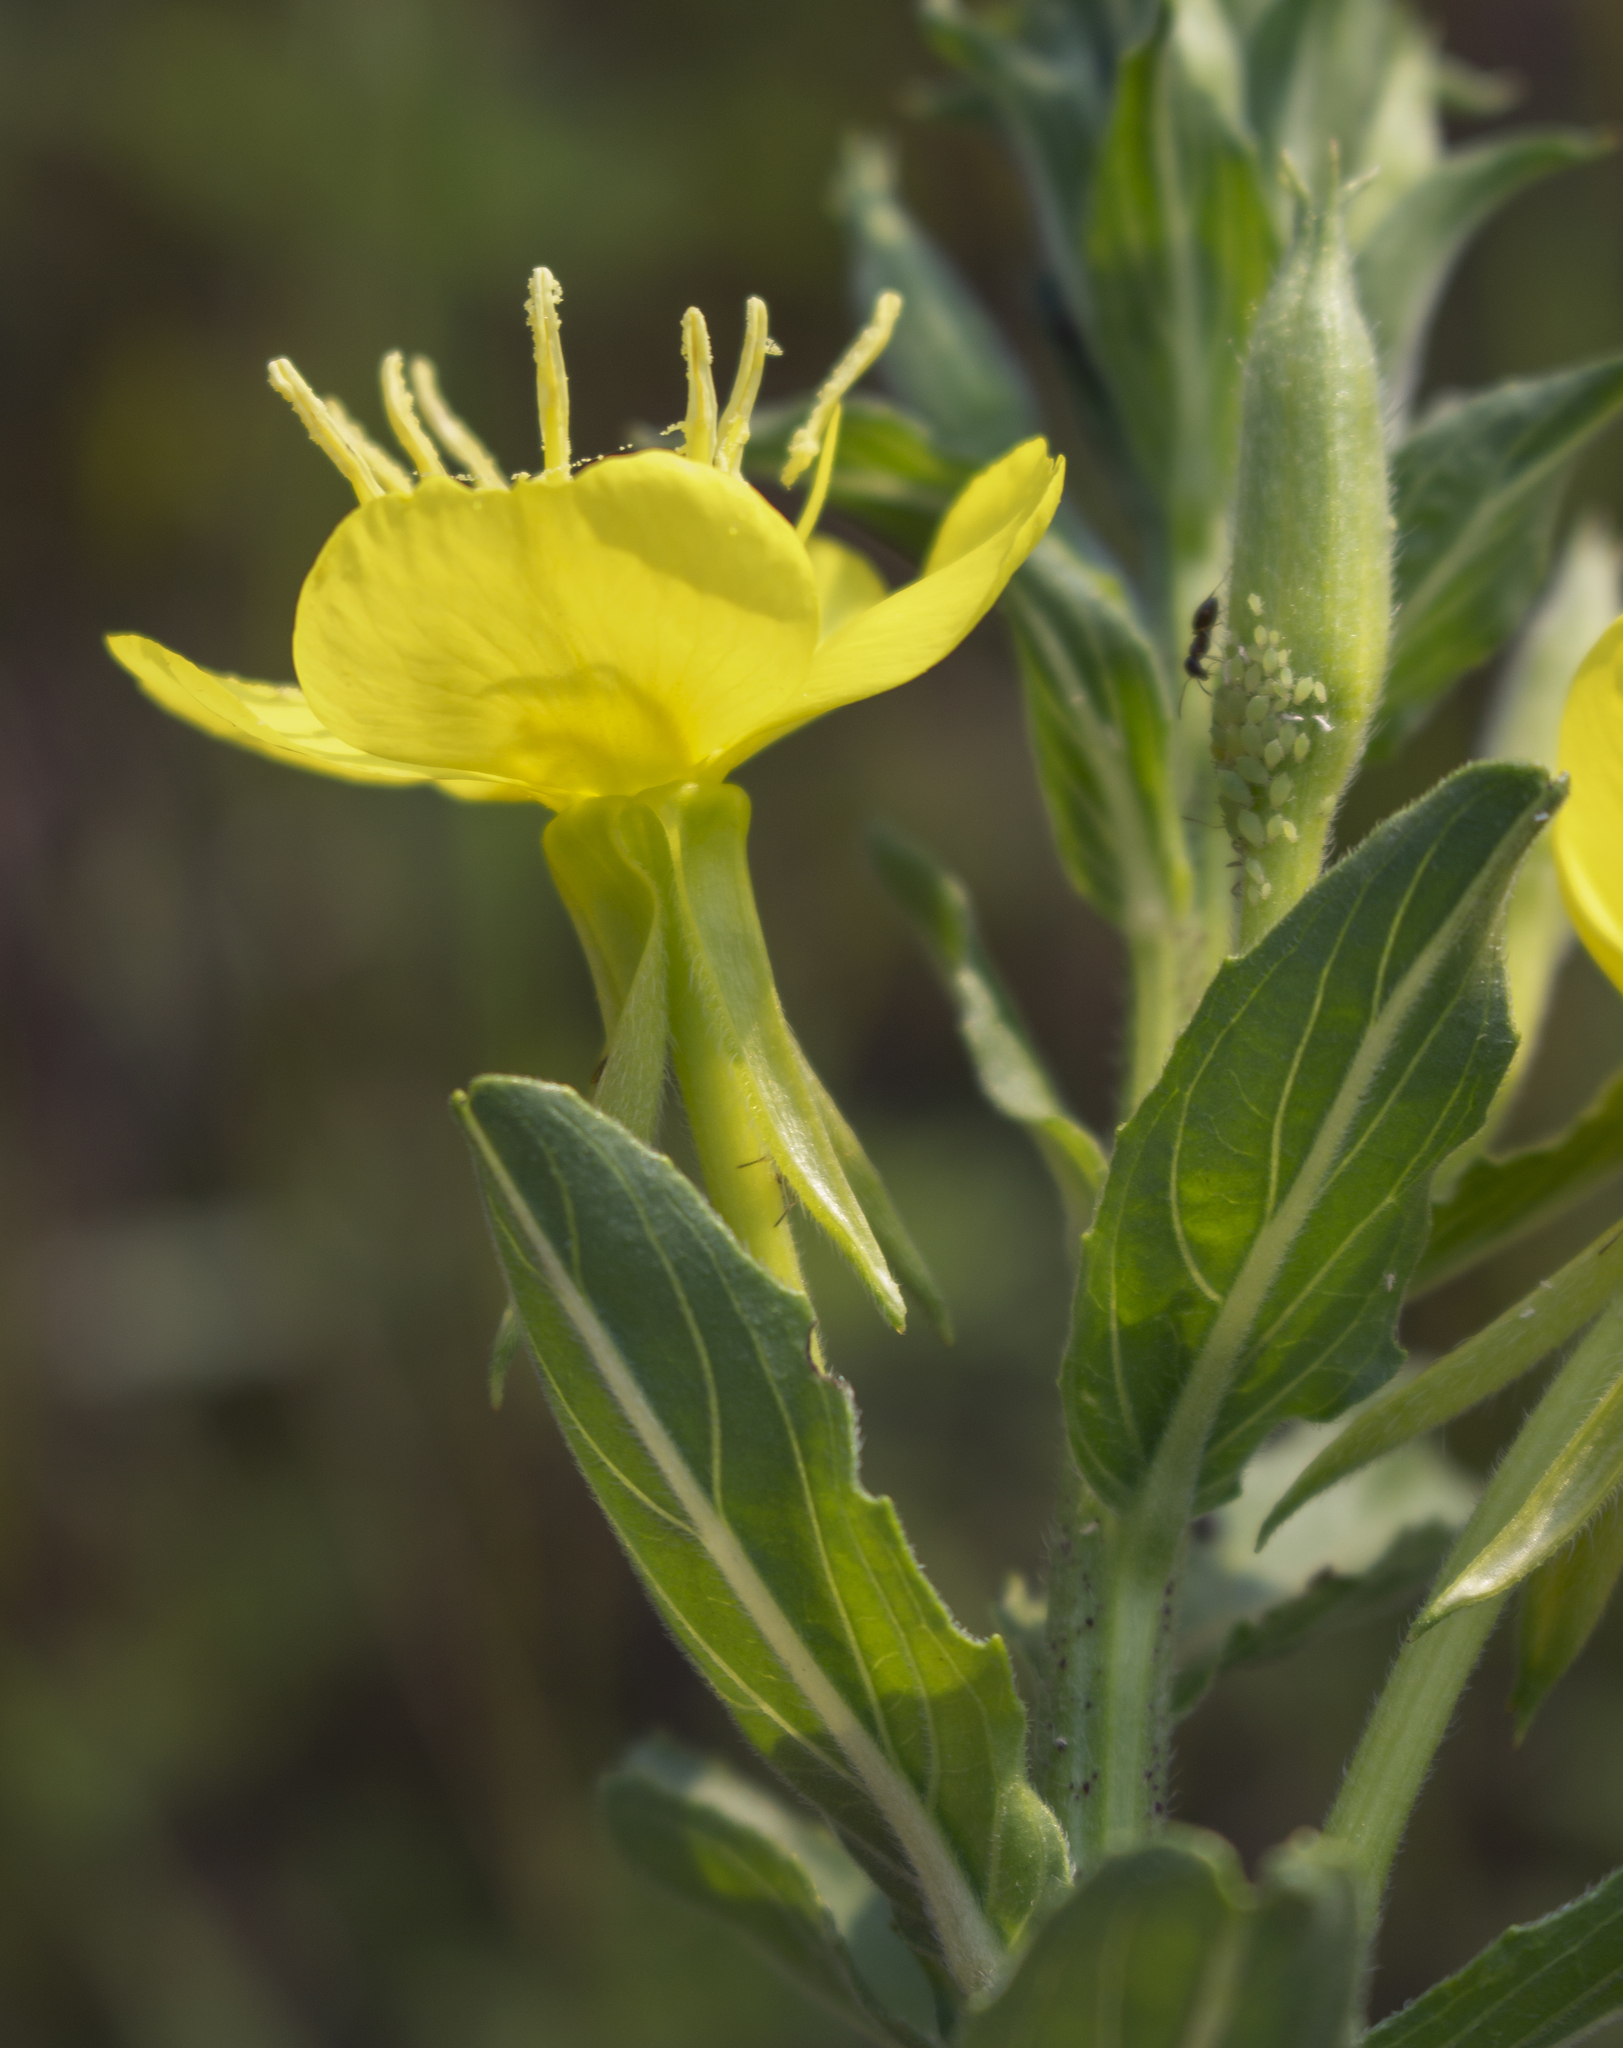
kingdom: Plantae
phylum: Tracheophyta
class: Magnoliopsida
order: Myrtales
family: Onagraceae
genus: Oenothera
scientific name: Oenothera biennis
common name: Common evening-primrose
